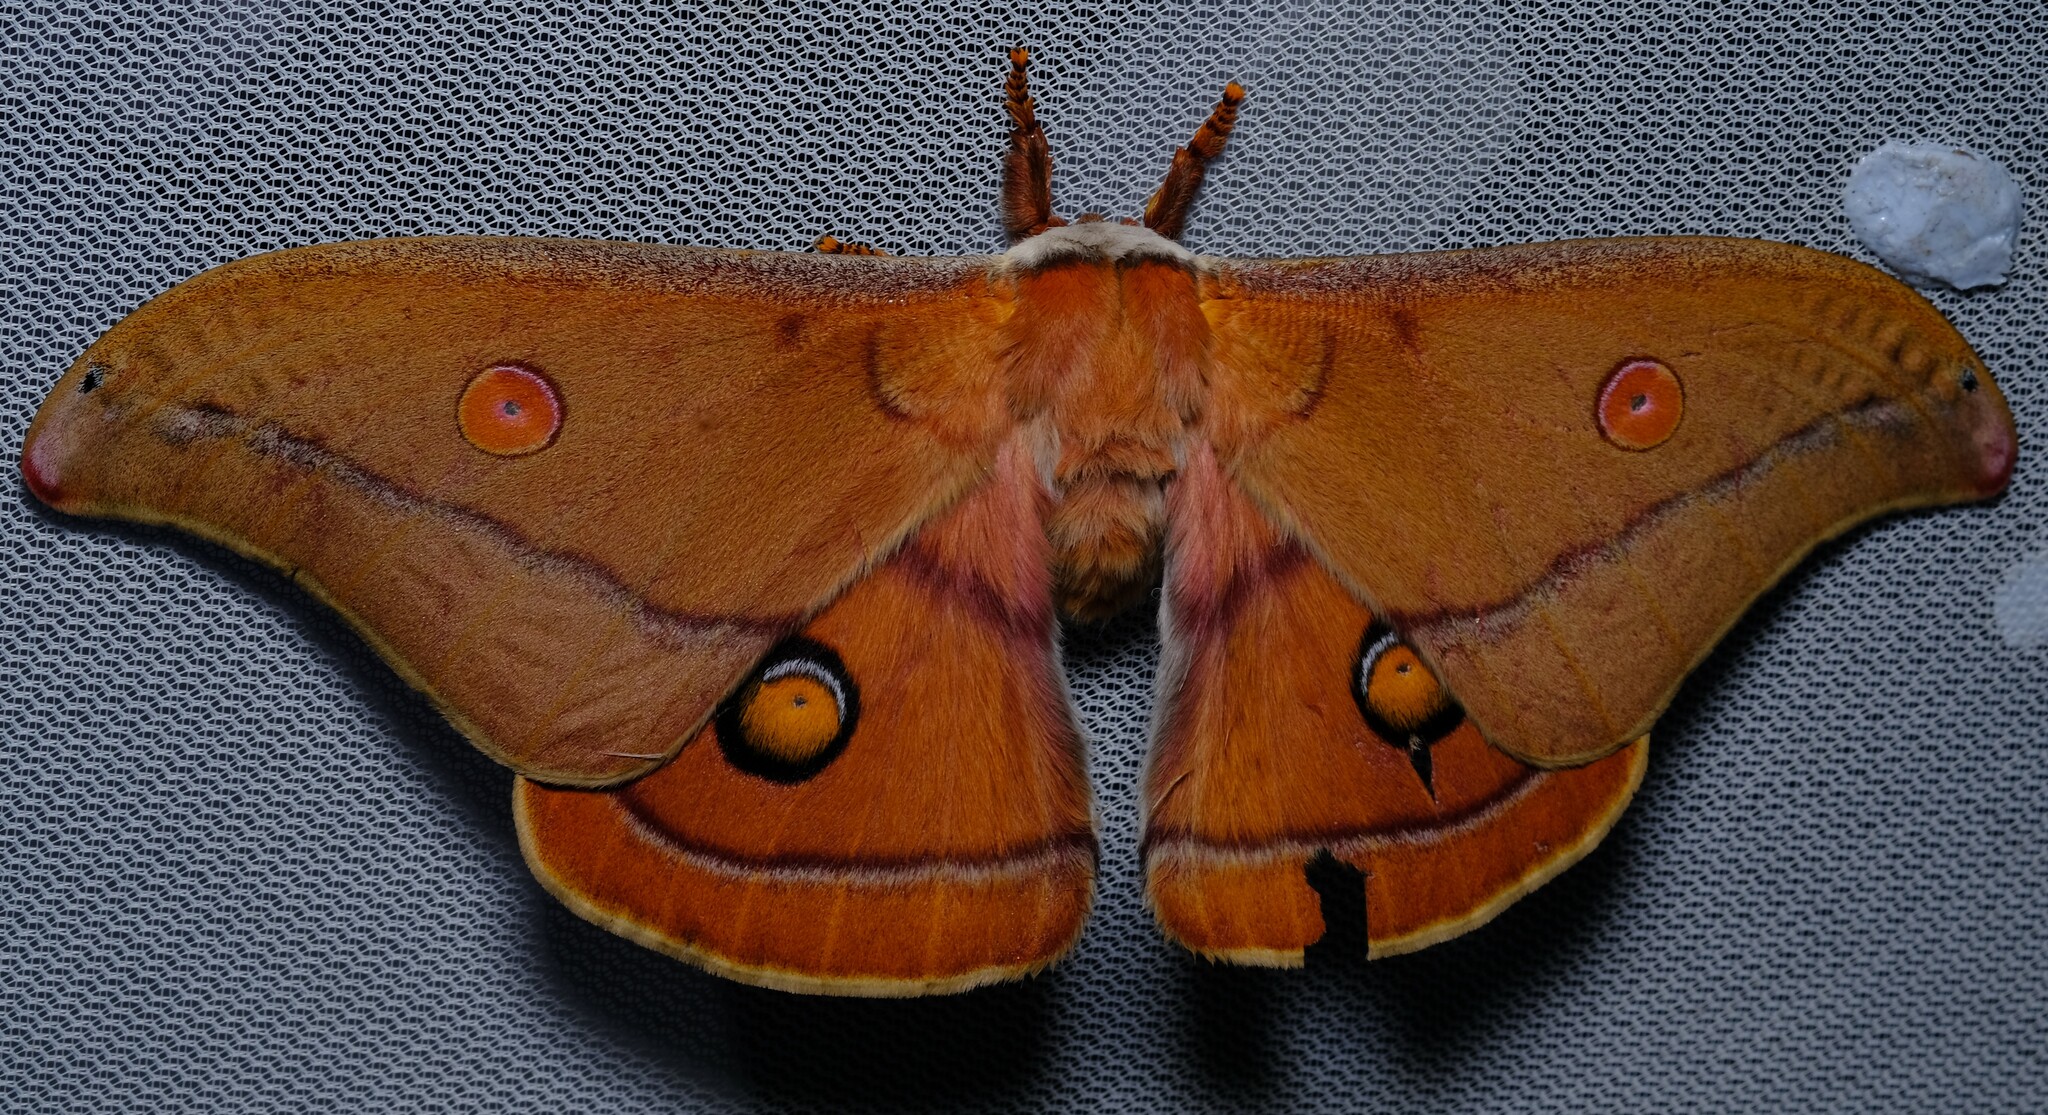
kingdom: Animalia
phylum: Arthropoda
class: Insecta
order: Lepidoptera
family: Saturniidae
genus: Opodiphthera
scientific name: Opodiphthera
